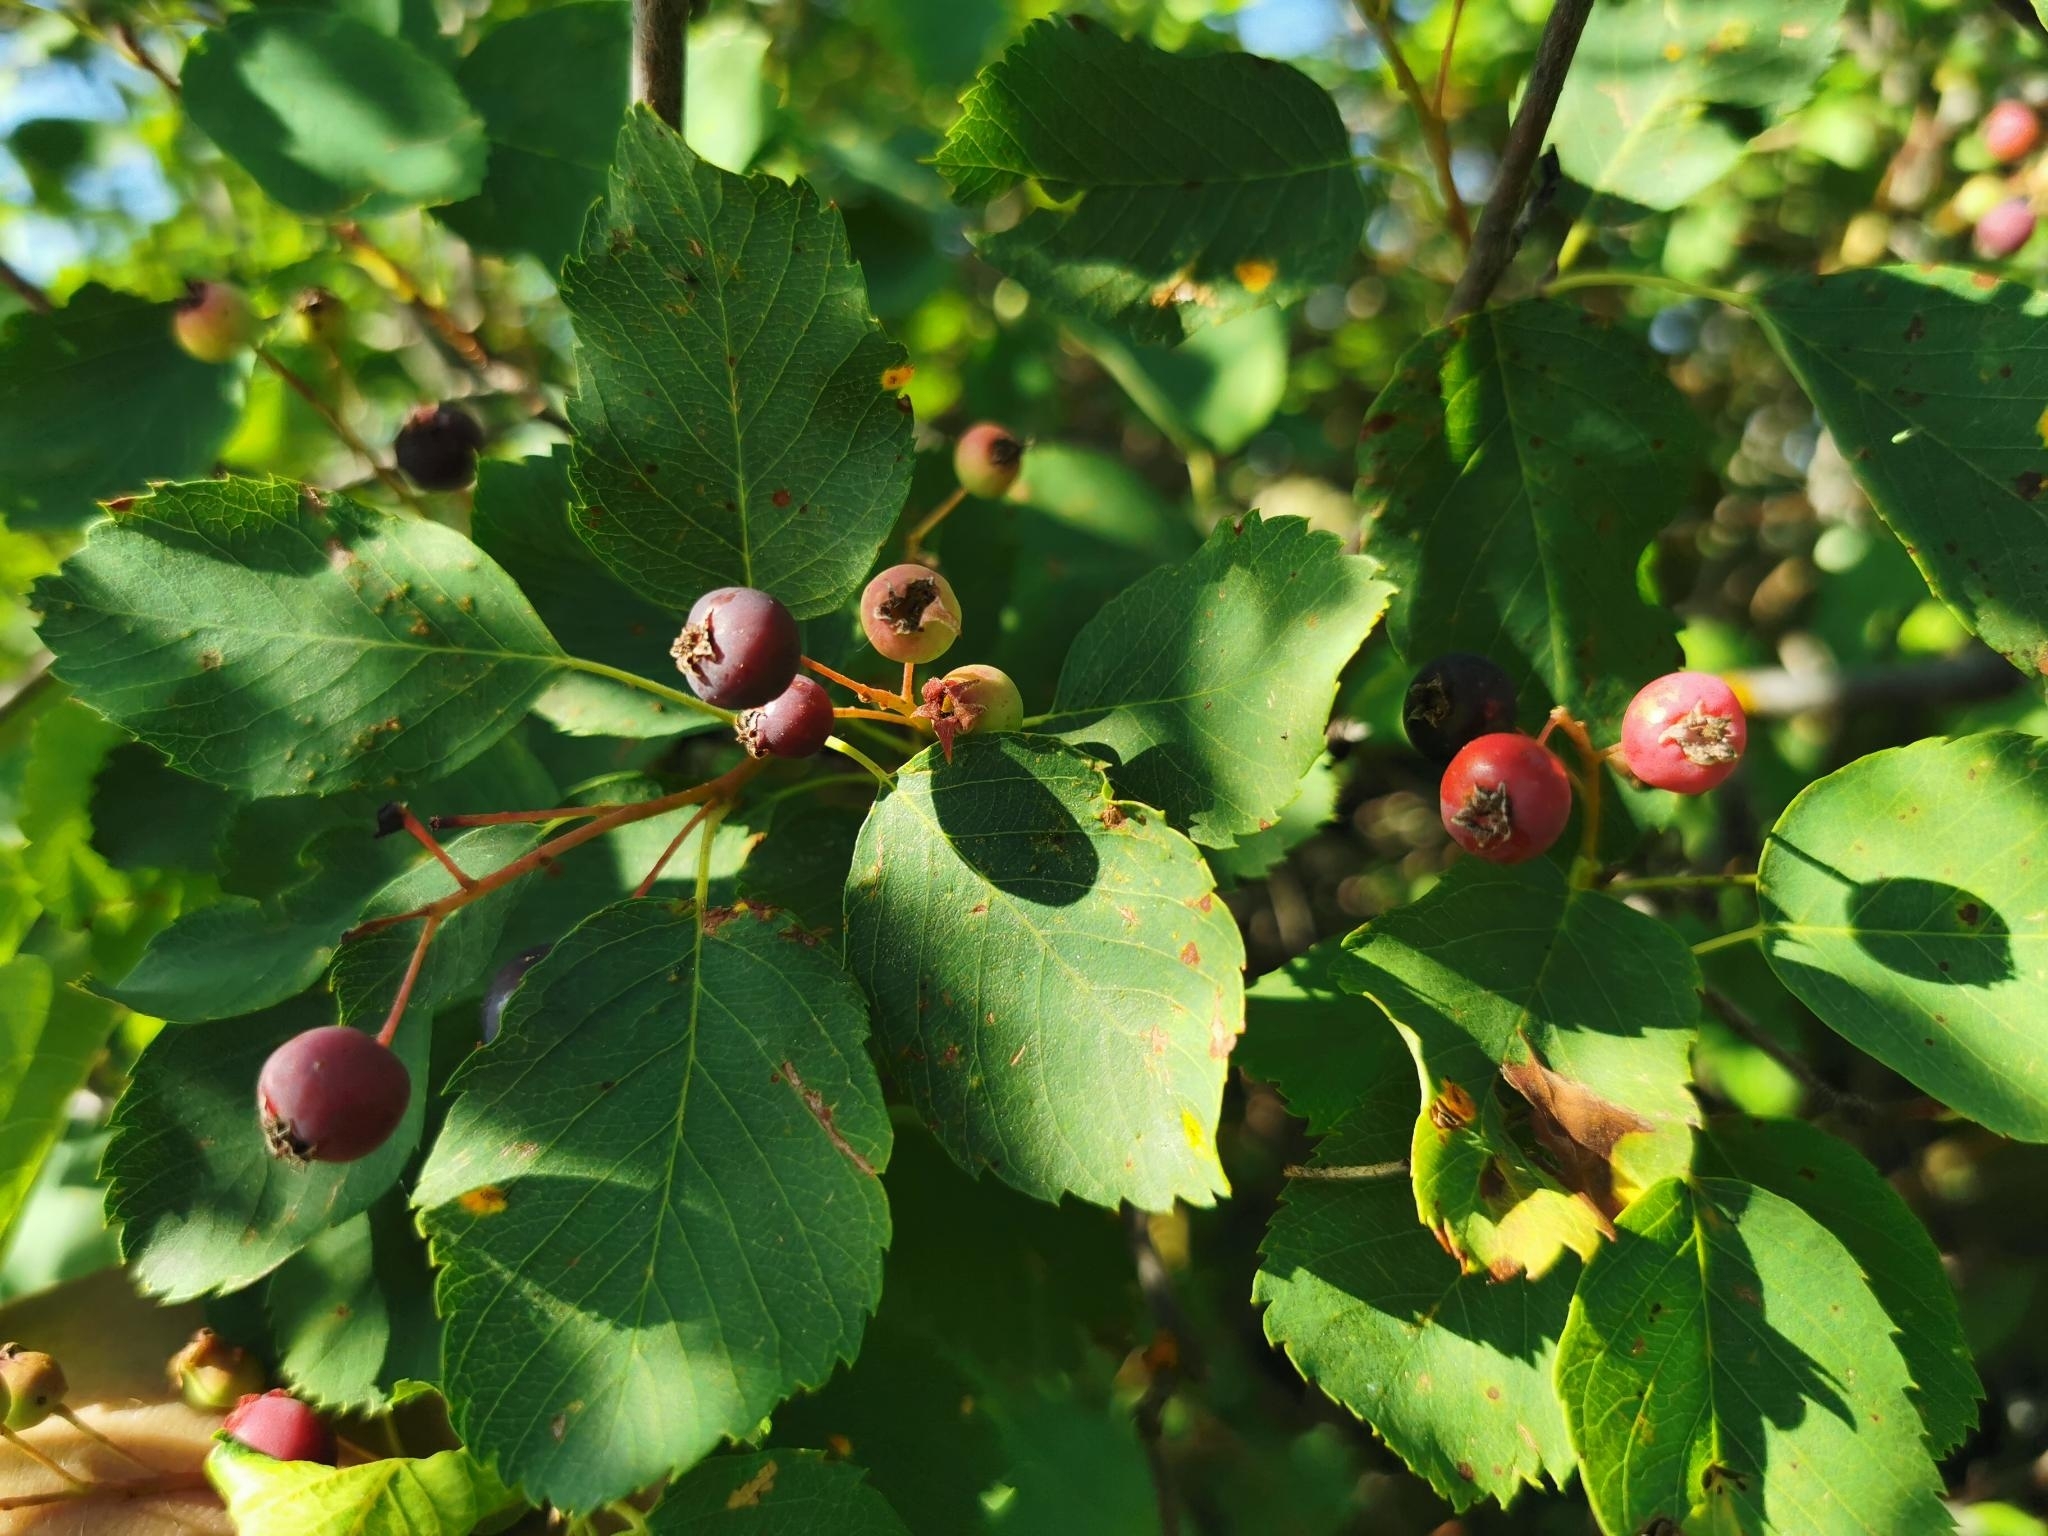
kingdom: Plantae
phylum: Tracheophyta
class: Magnoliopsida
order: Rosales
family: Rosaceae
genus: Amelanchier
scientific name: Amelanchier alnifolia
